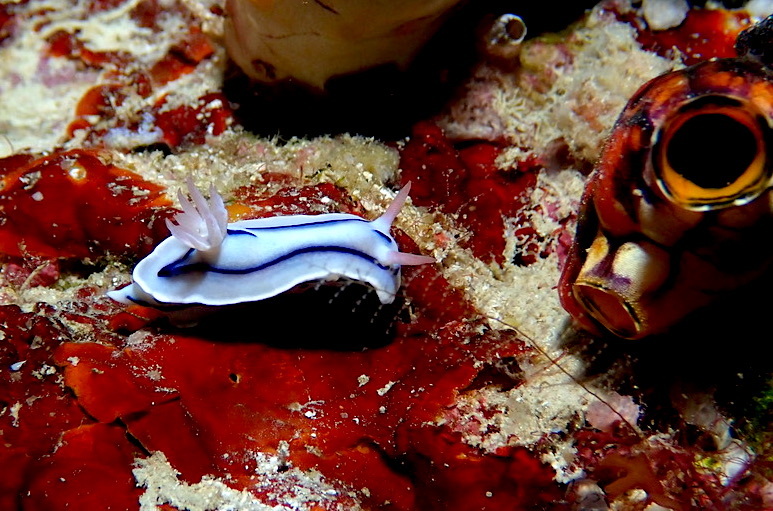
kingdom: Animalia
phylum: Mollusca
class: Gastropoda
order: Nudibranchia
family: Chromodorididae
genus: Chromodoris
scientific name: Chromodoris lochi
